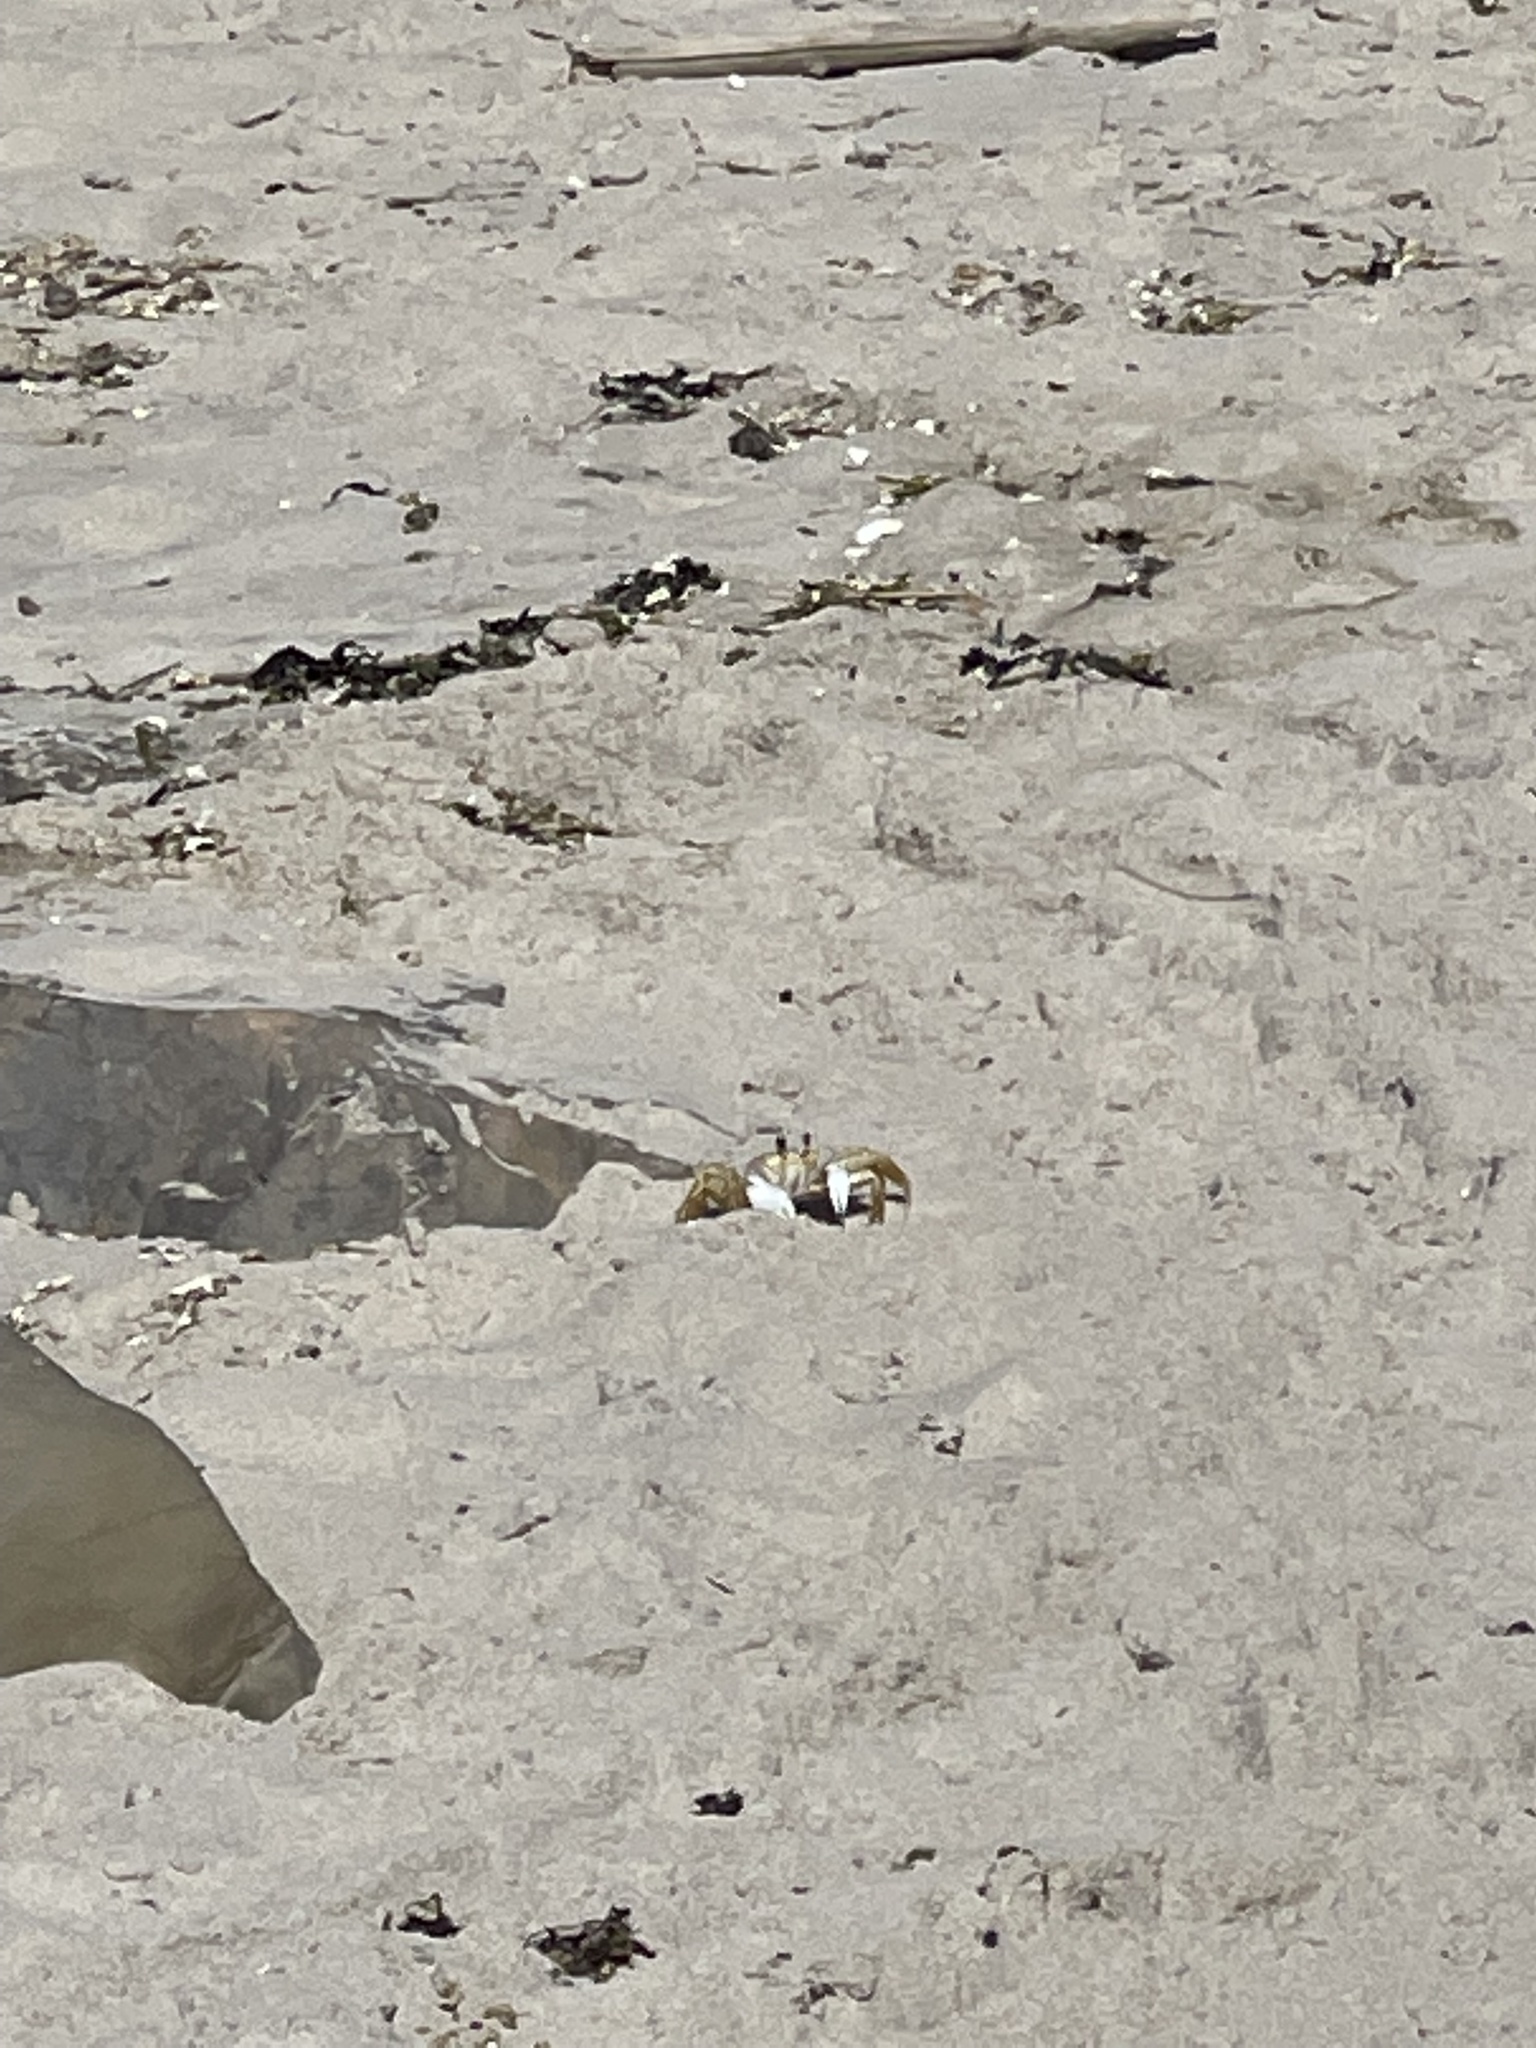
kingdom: Animalia
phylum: Arthropoda
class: Malacostraca
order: Decapoda
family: Ocypodidae
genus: Ocypode
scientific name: Ocypode quadrata
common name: Ghost crab
